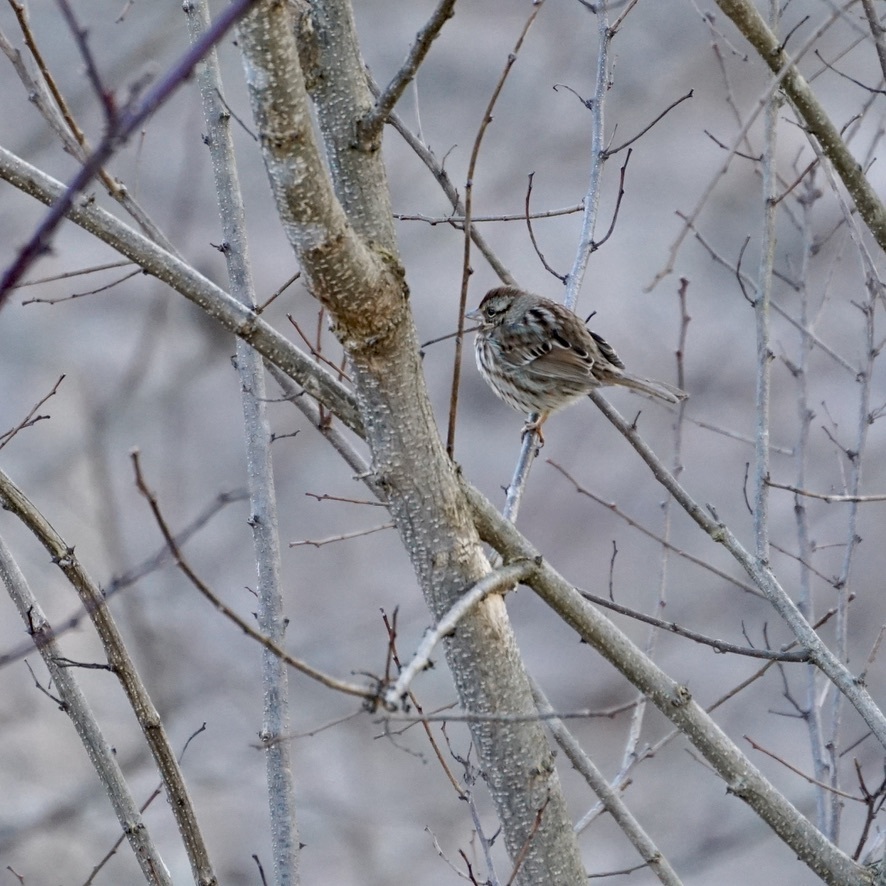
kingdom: Animalia
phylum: Chordata
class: Aves
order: Passeriformes
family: Passerellidae
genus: Melospiza
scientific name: Melospiza melodia
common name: Song sparrow
